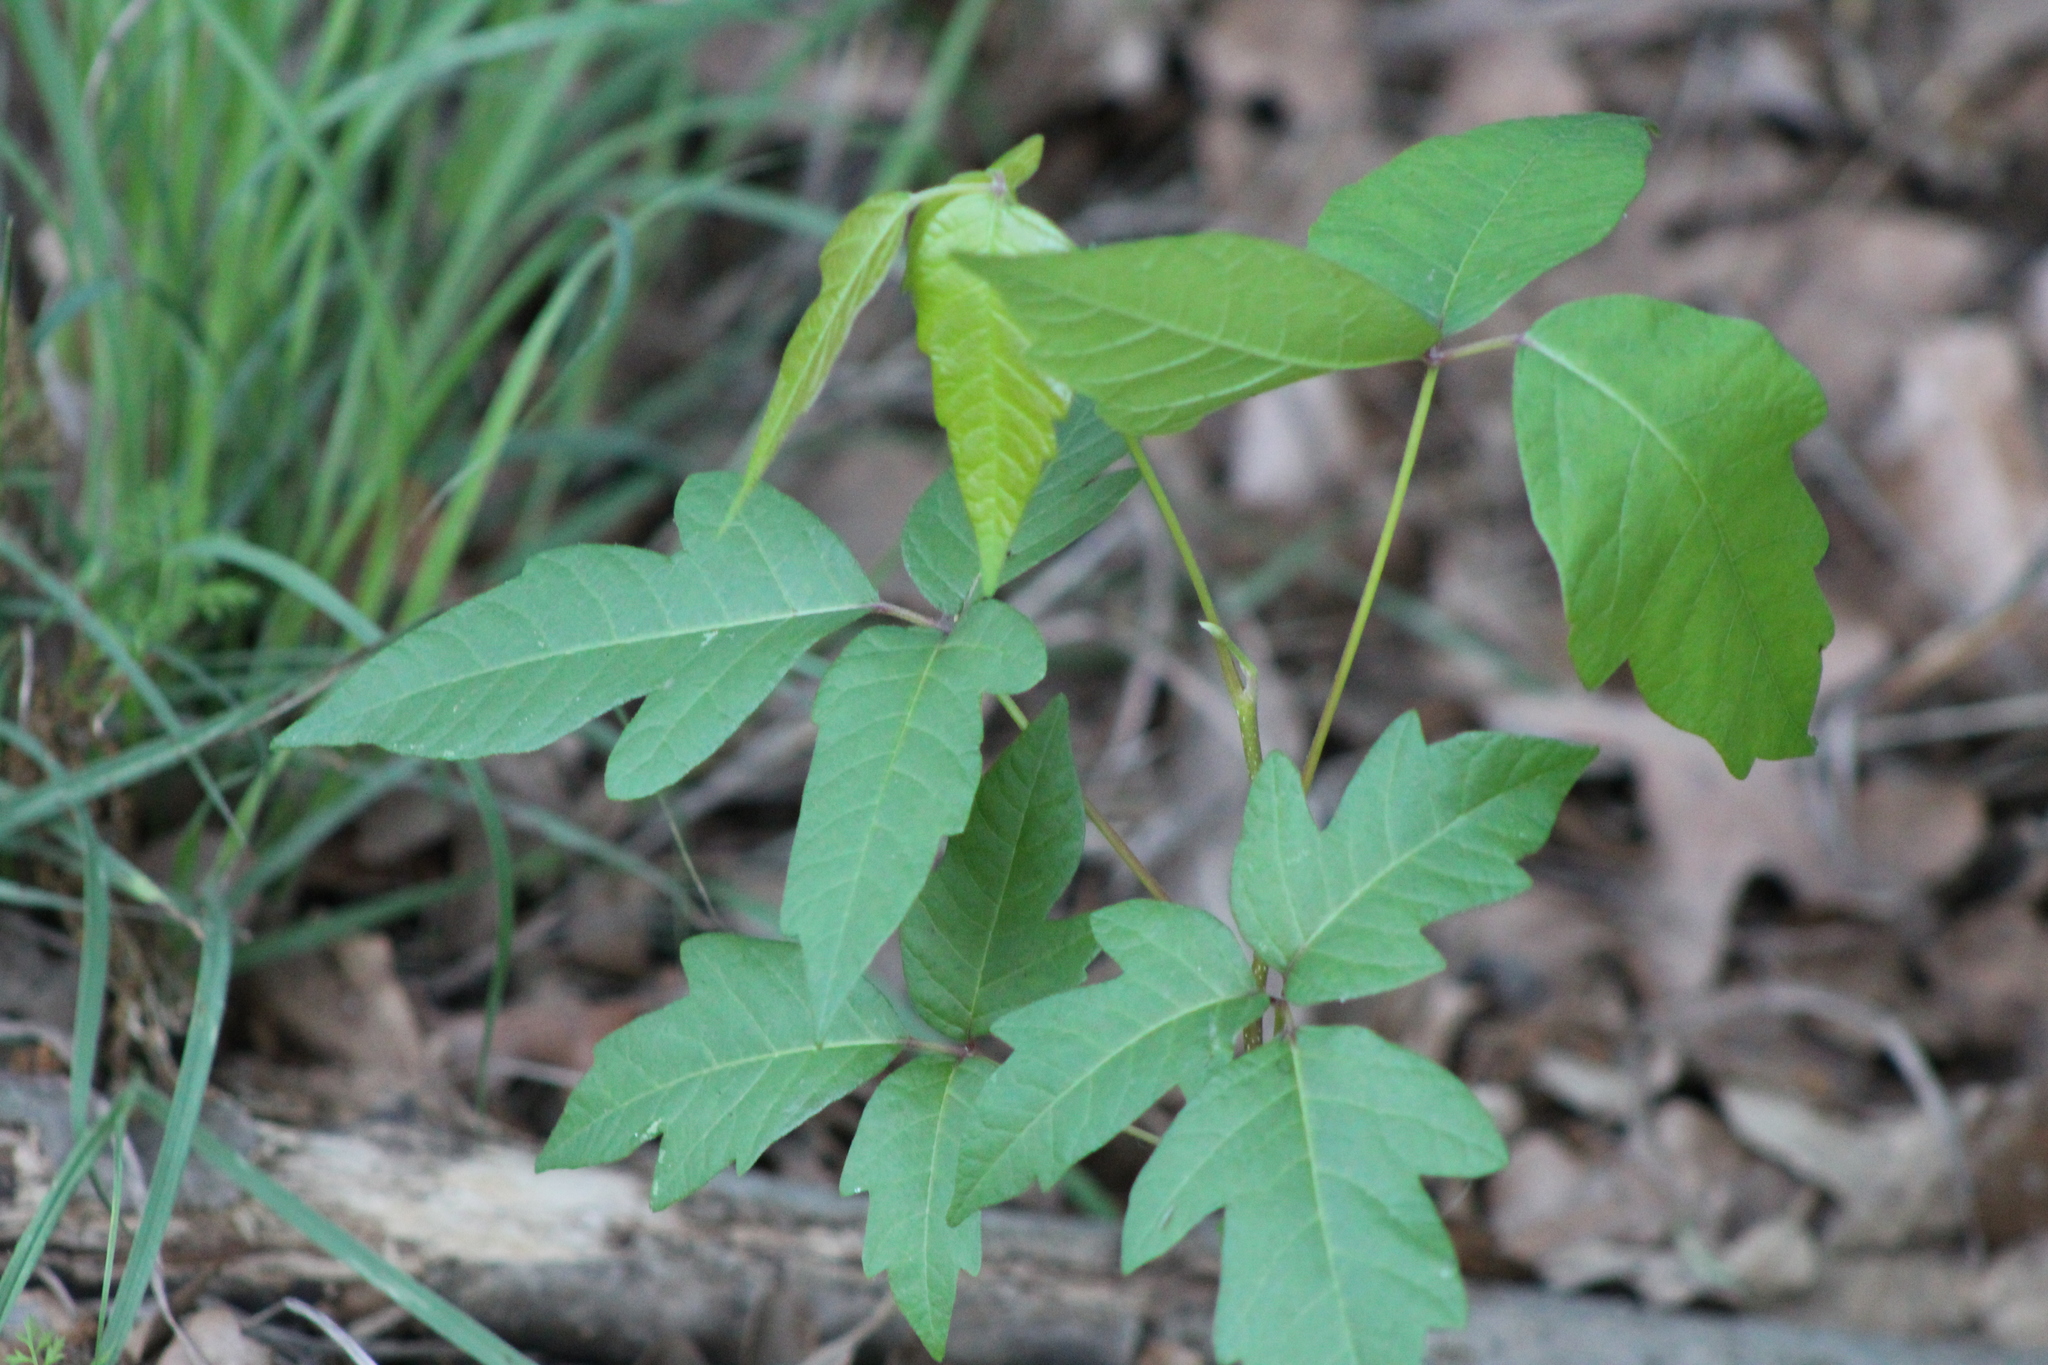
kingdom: Plantae
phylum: Tracheophyta
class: Magnoliopsida
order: Sapindales
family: Anacardiaceae
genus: Toxicodendron
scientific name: Toxicodendron radicans
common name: Poison ivy
